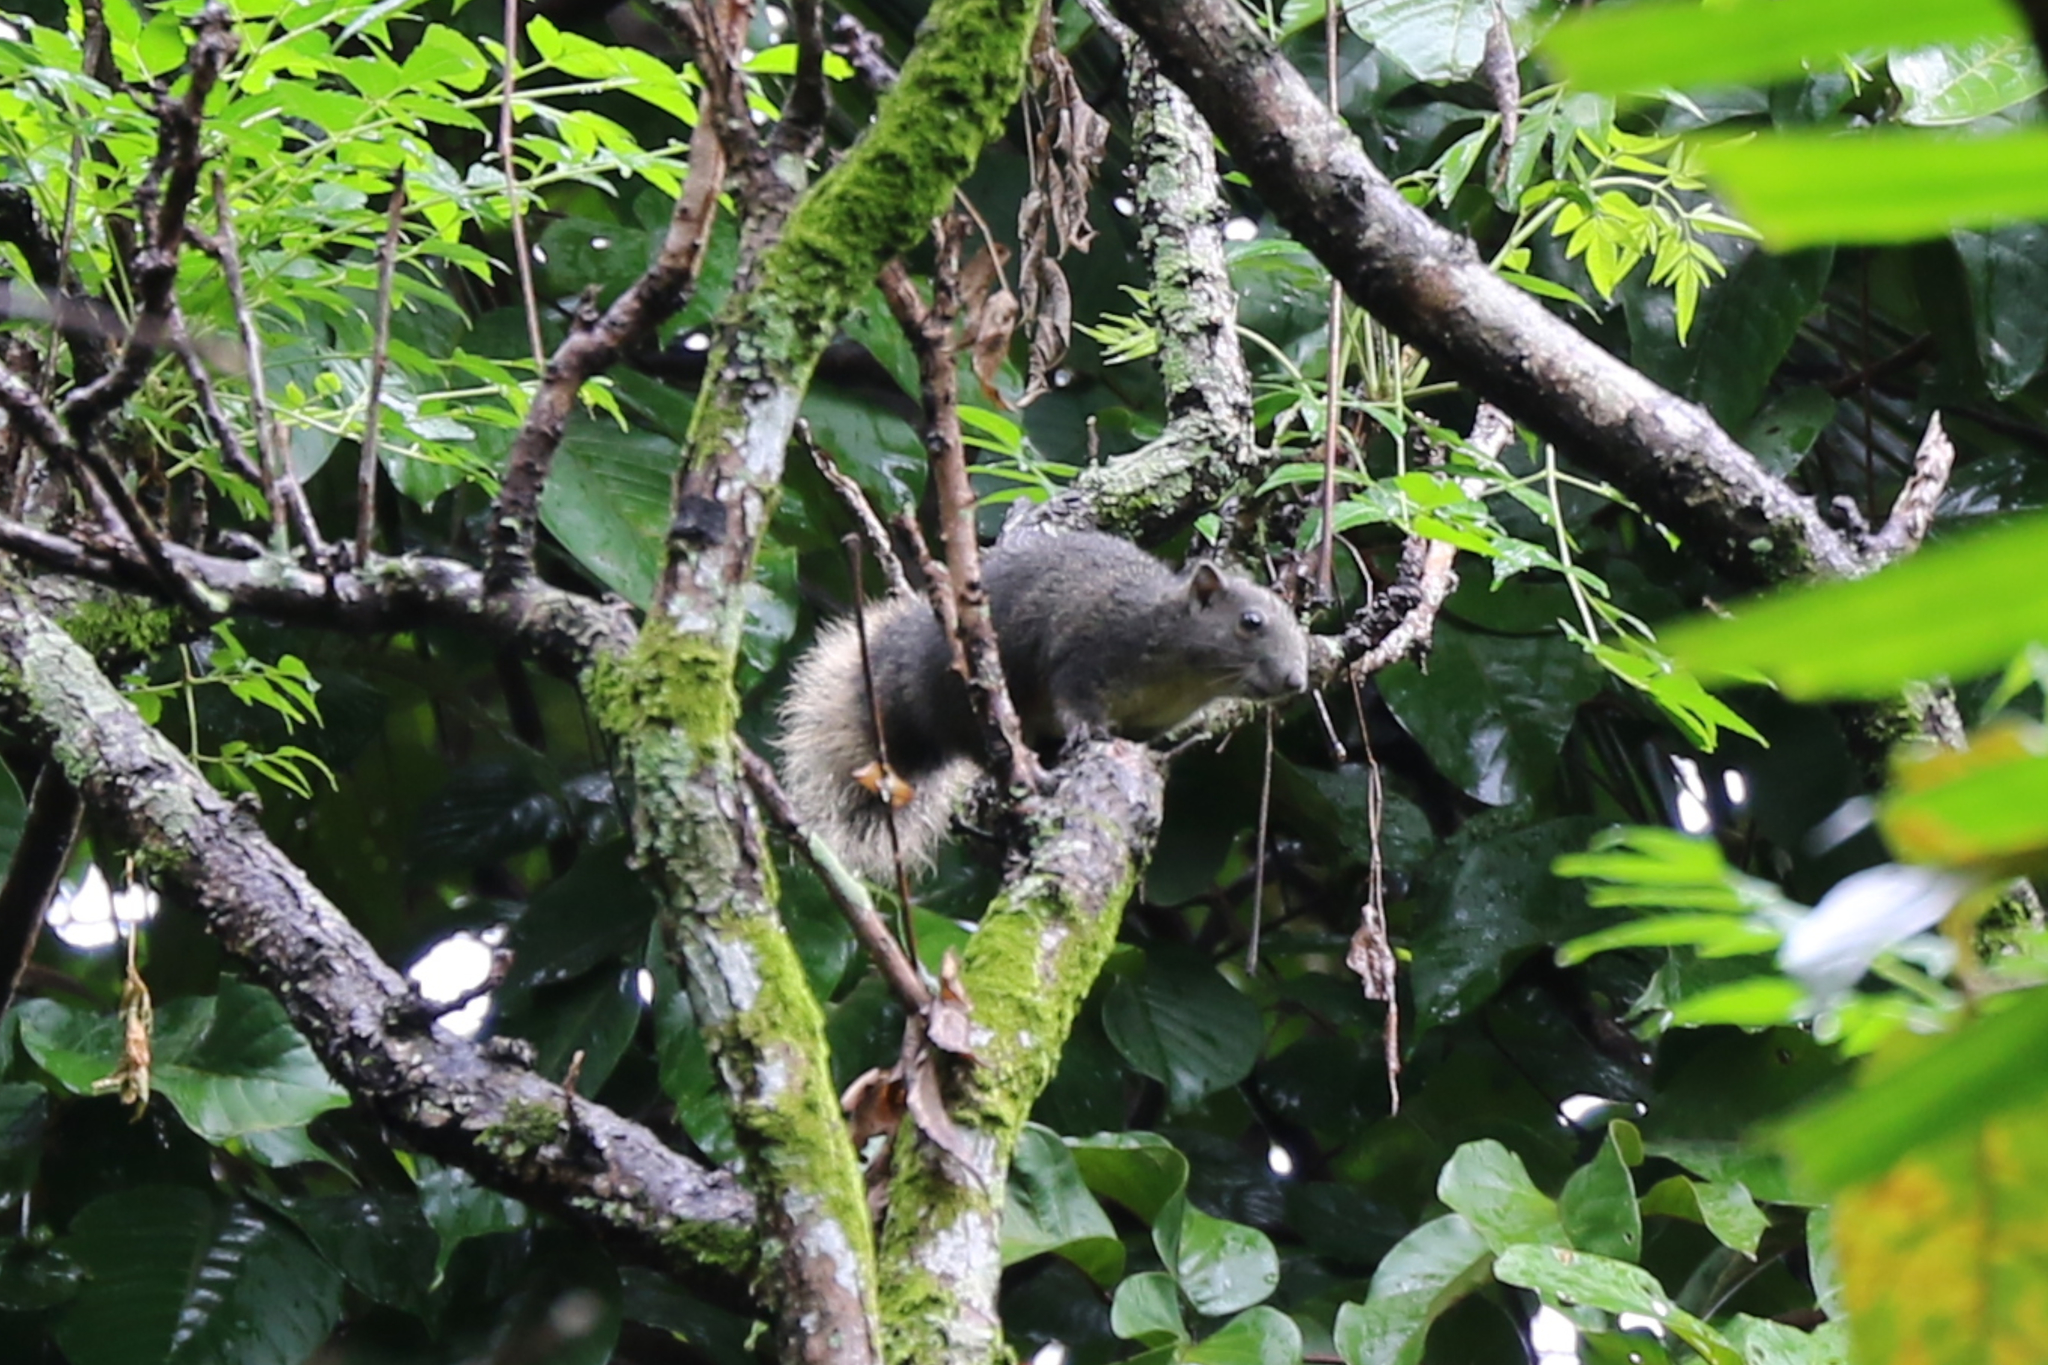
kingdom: Animalia
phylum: Chordata
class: Mammalia
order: Rodentia
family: Sciuridae
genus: Callosciurus
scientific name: Callosciurus finlaysonii
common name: Finlayson's squirrel
